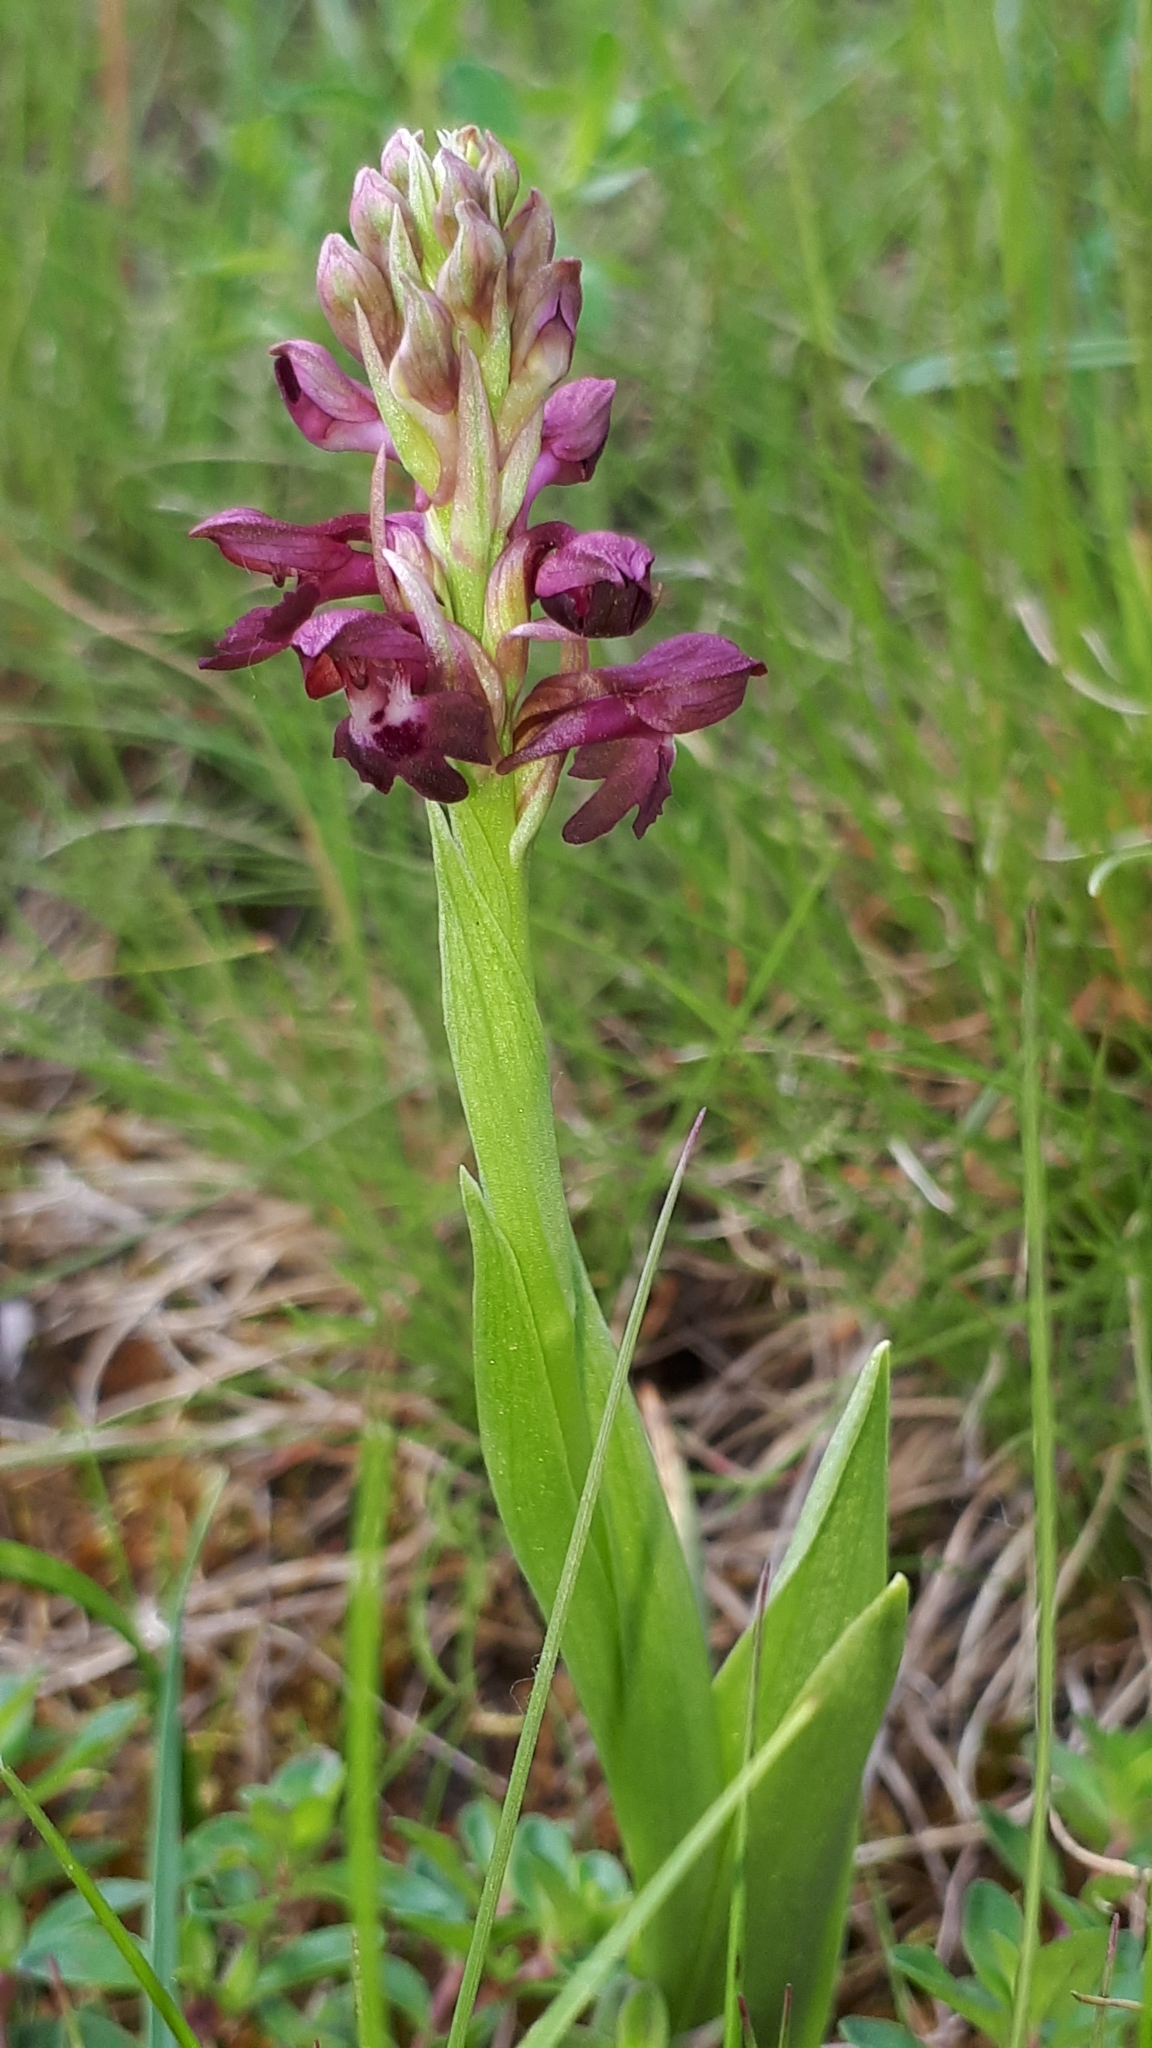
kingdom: Plantae
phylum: Tracheophyta
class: Liliopsida
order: Asparagales
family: Orchidaceae
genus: Anacamptis
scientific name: Anacamptis coriophora
